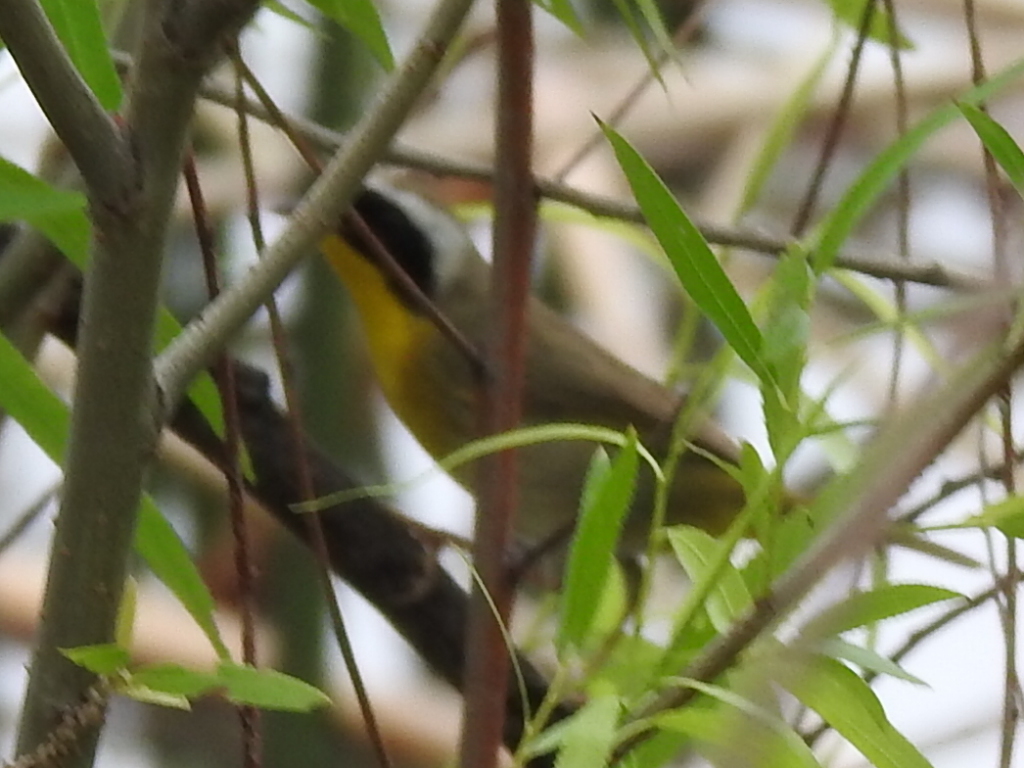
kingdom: Animalia
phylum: Chordata
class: Aves
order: Passeriformes
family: Parulidae
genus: Geothlypis
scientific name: Geothlypis trichas
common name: Common yellowthroat
